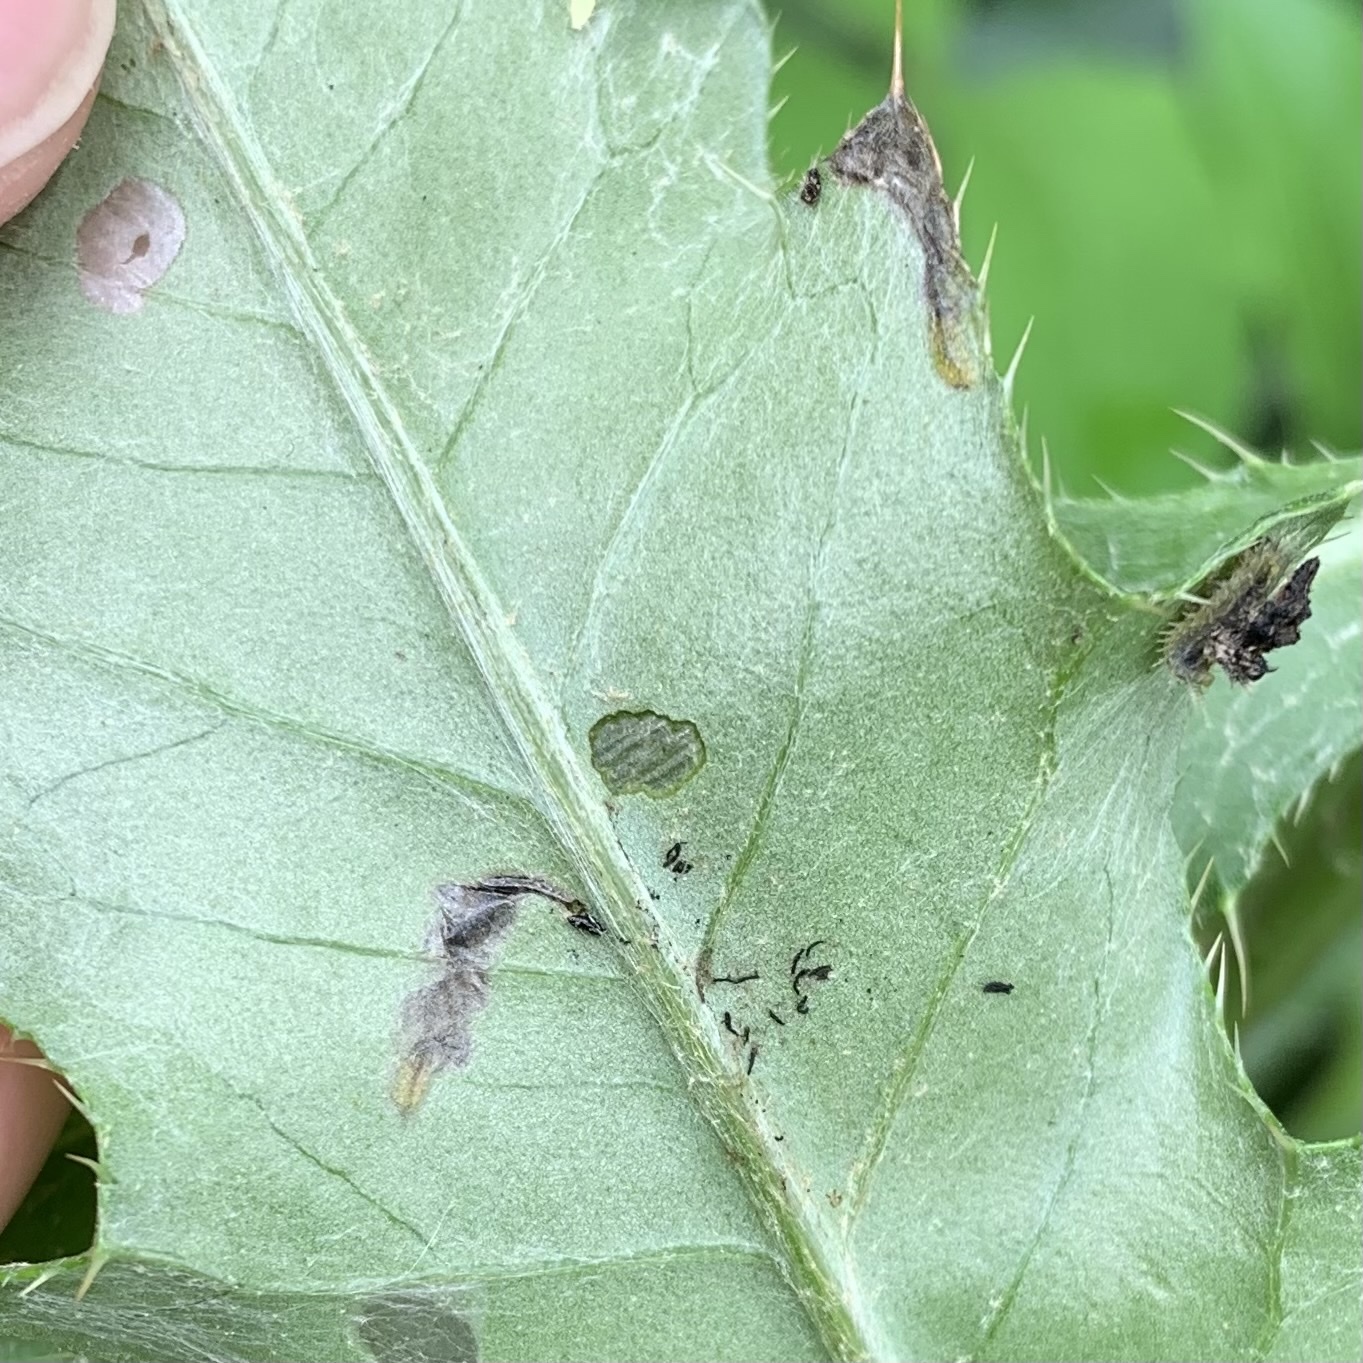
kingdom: Animalia
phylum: Arthropoda
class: Insecta
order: Coleoptera
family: Chrysomelidae
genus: Oulema
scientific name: Oulema palustris
